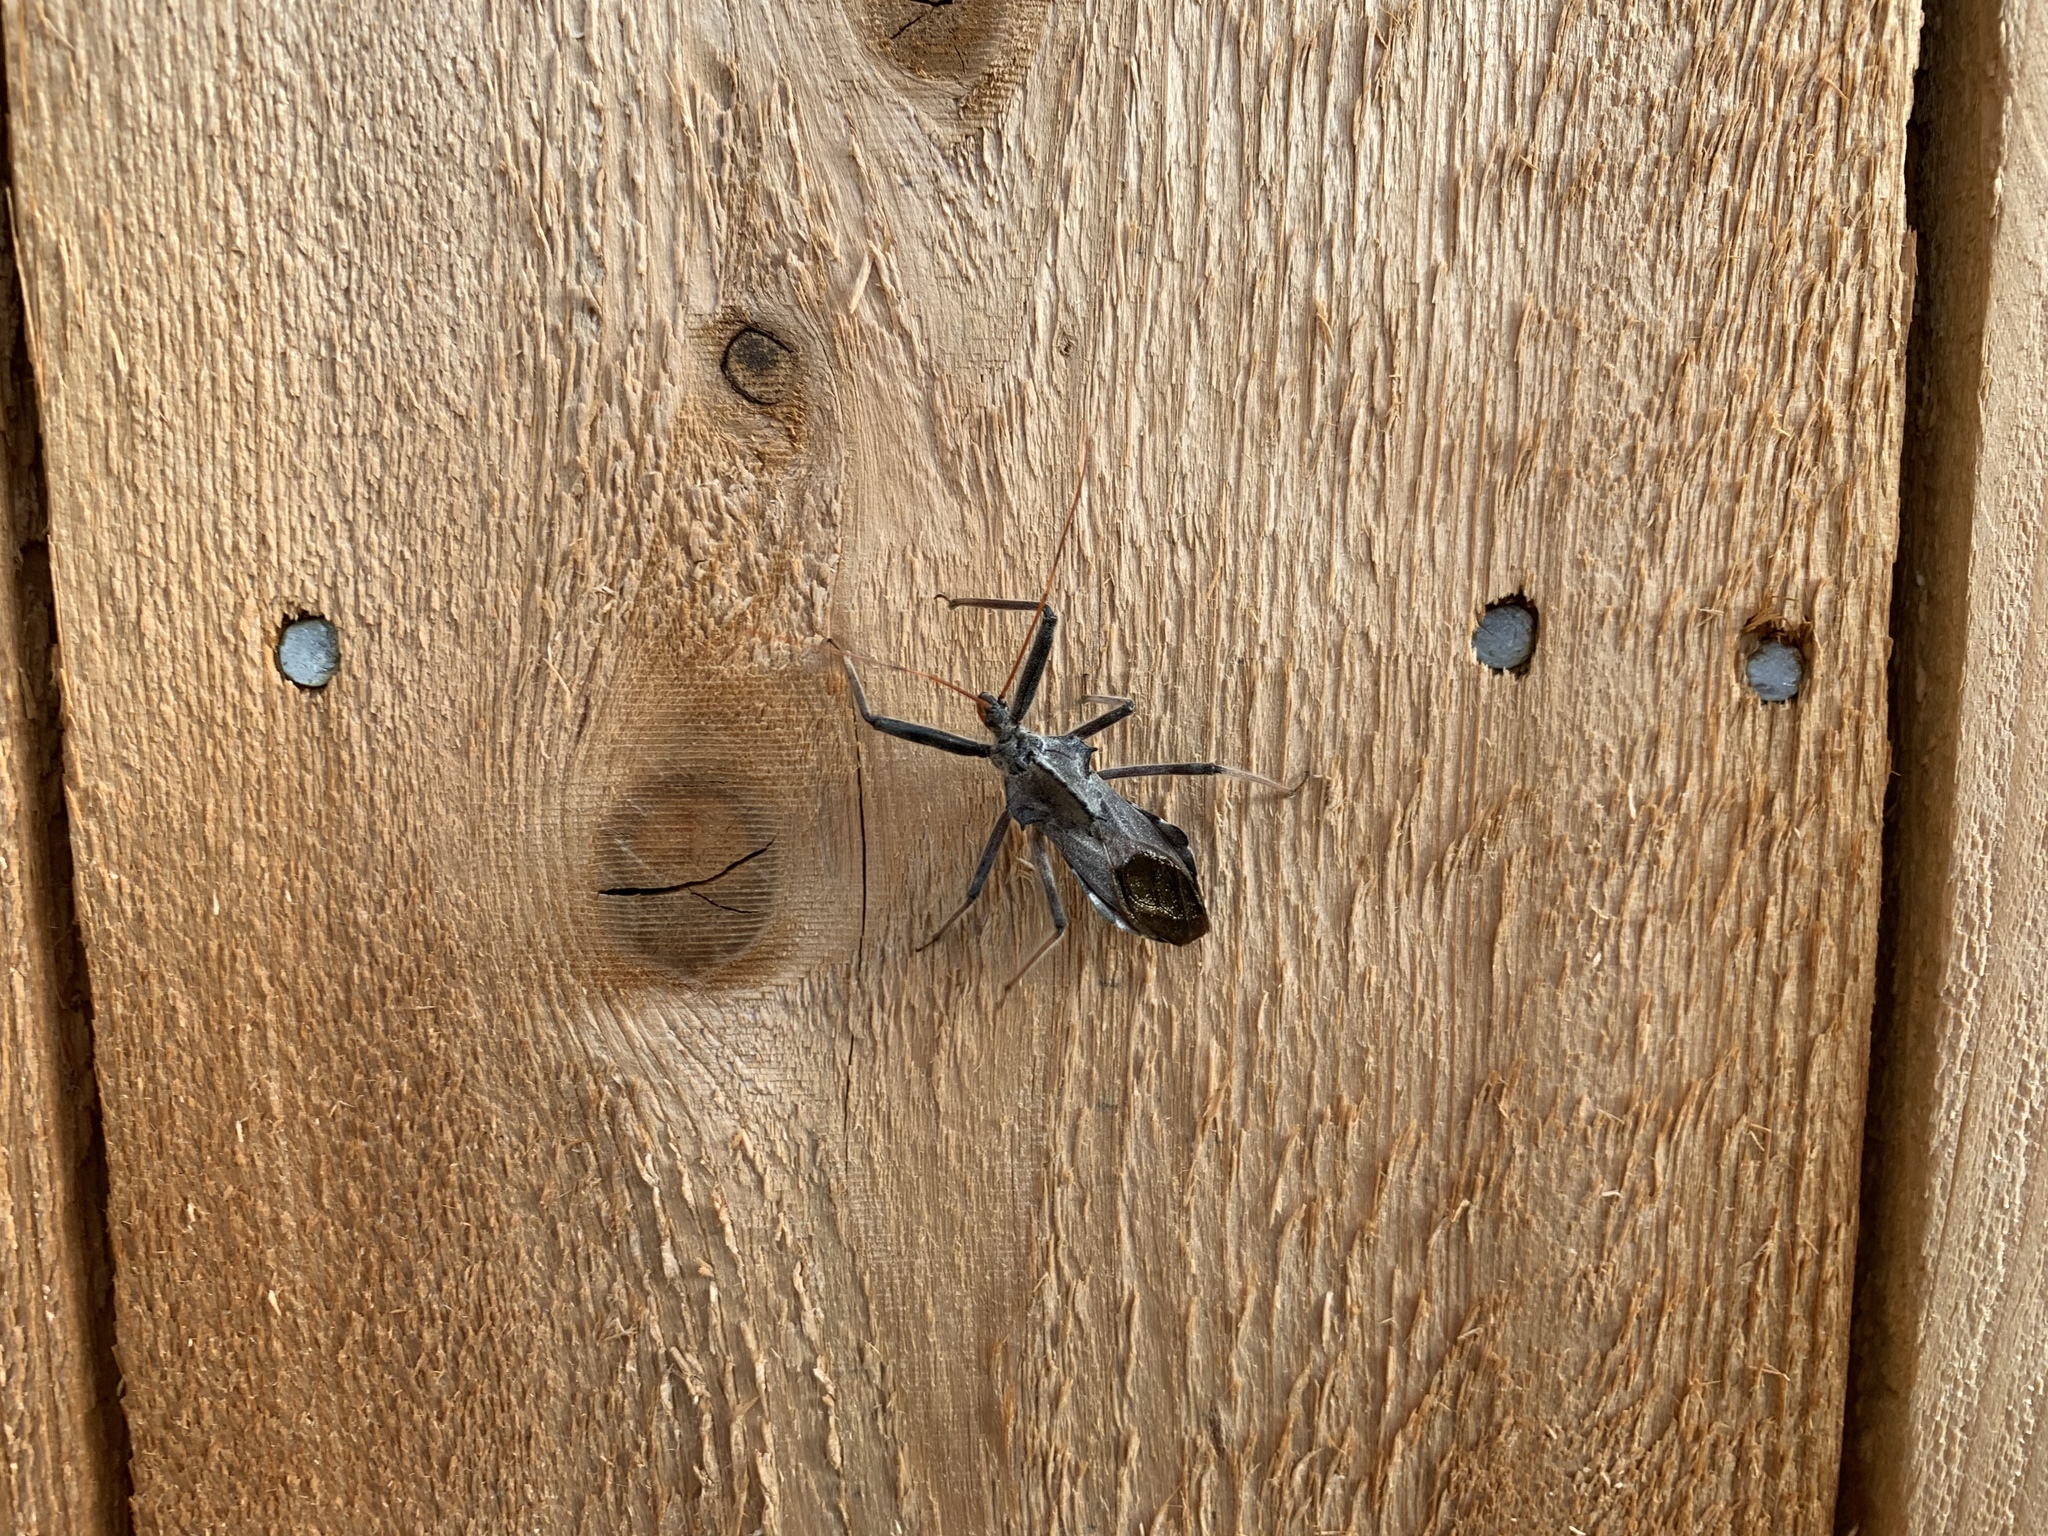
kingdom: Animalia
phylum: Arthropoda
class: Insecta
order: Hemiptera
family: Reduviidae
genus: Arilus
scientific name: Arilus cristatus
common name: North american wheel bug
